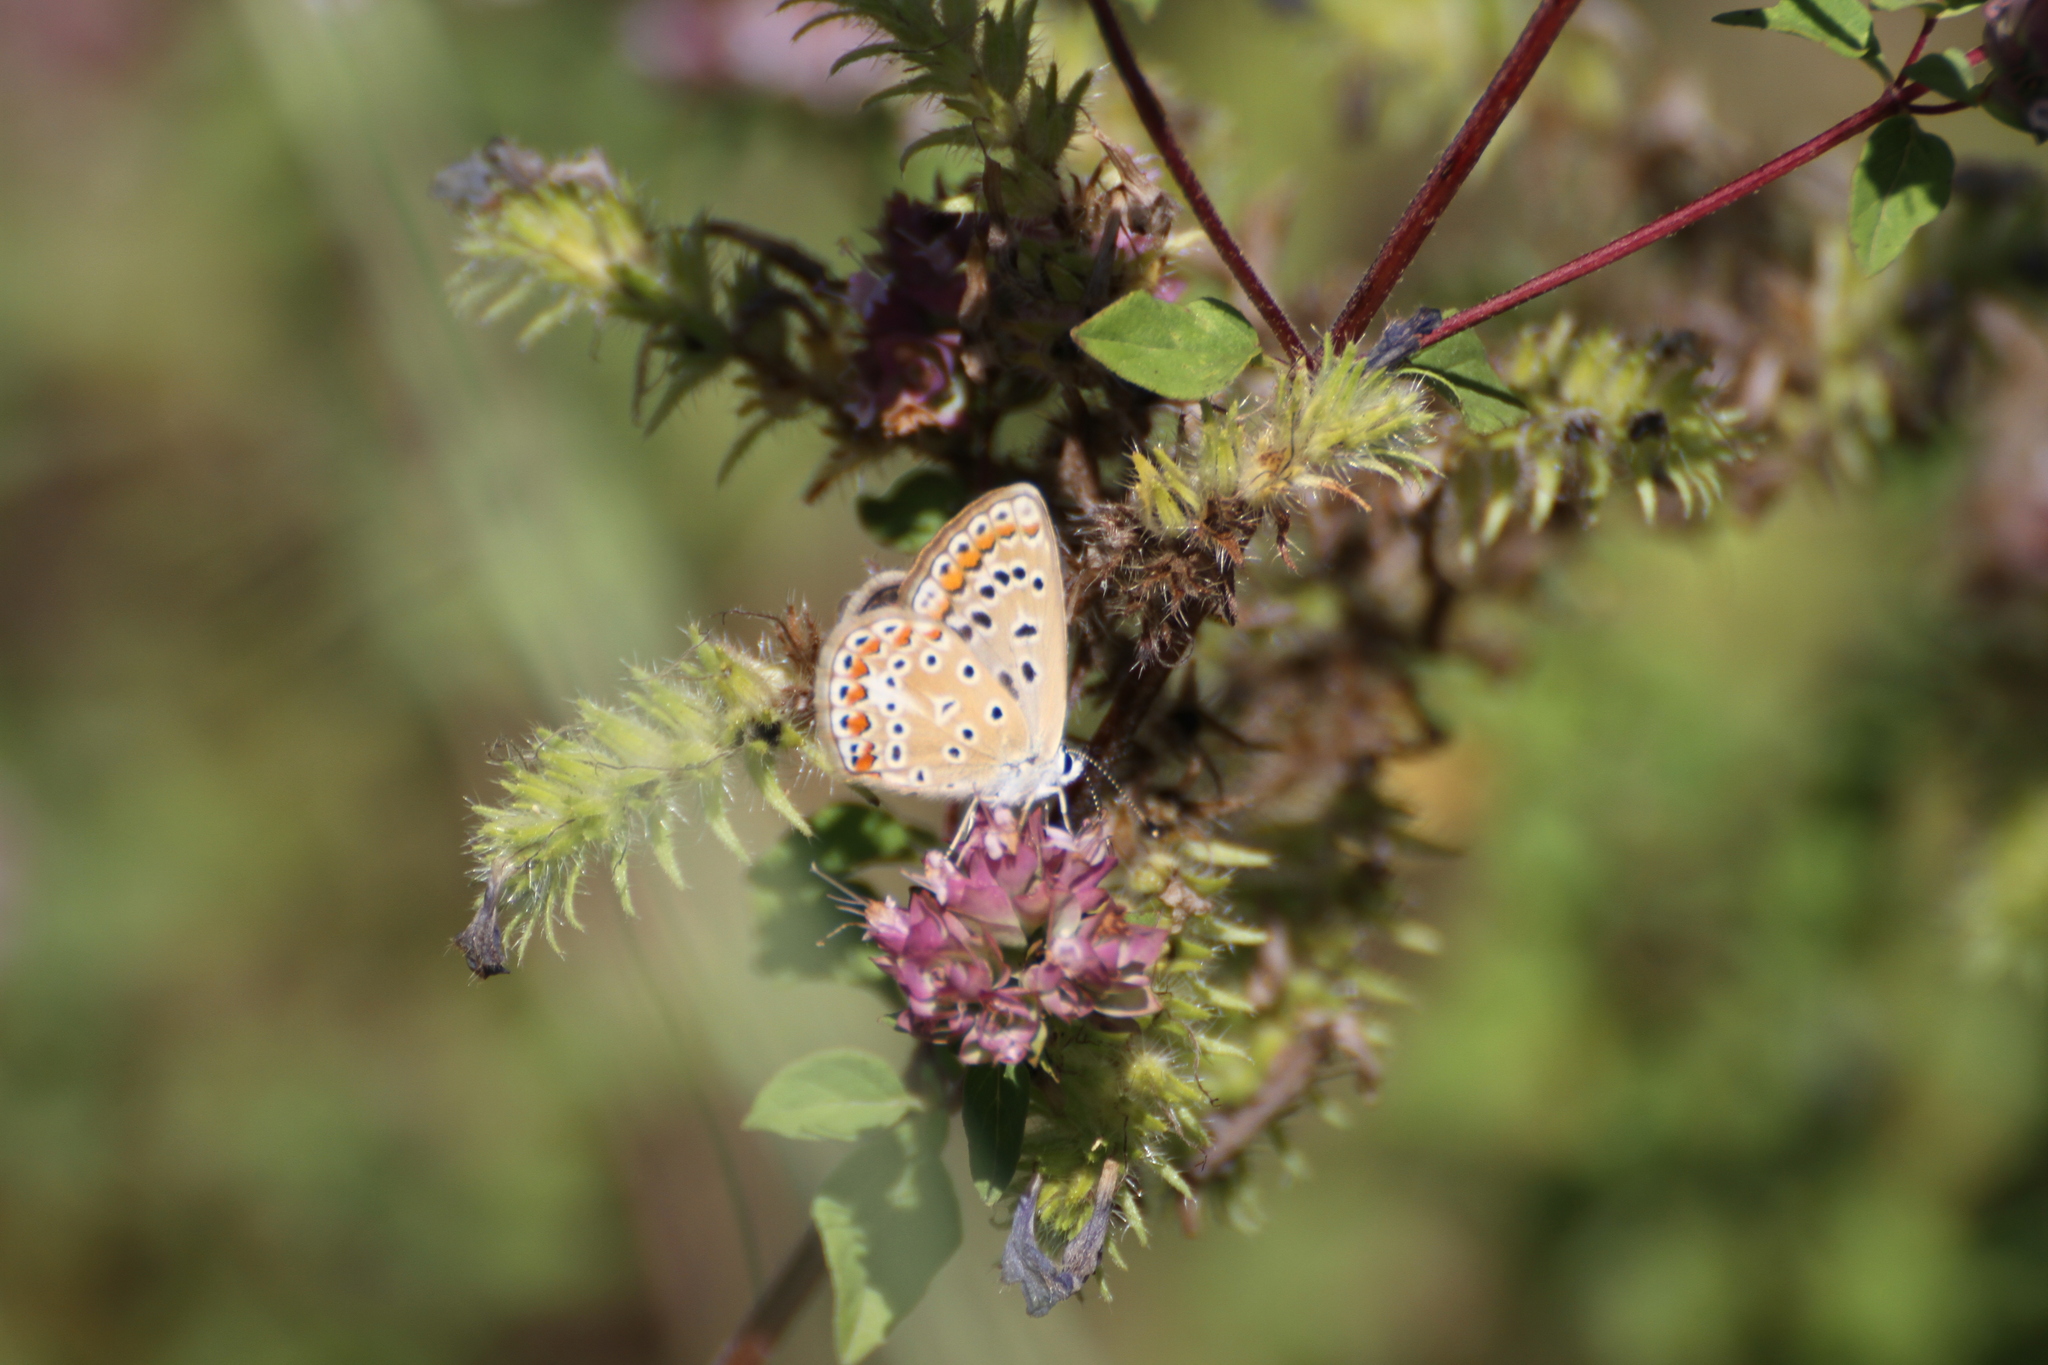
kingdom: Animalia
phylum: Arthropoda
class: Insecta
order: Lepidoptera
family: Lycaenidae
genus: Polyommatus
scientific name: Polyommatus icarus
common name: Common blue
